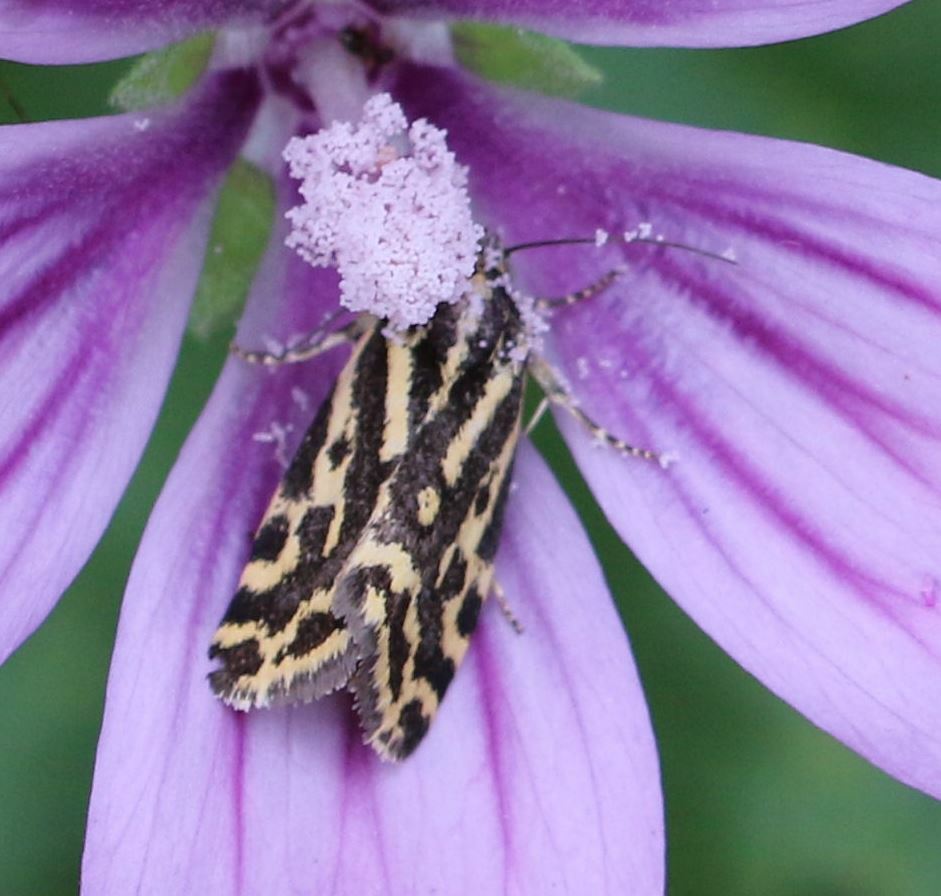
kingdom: Animalia
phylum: Arthropoda
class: Insecta
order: Lepidoptera
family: Noctuidae
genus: Acontia
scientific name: Acontia trabealis
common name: Spotted sulphur
